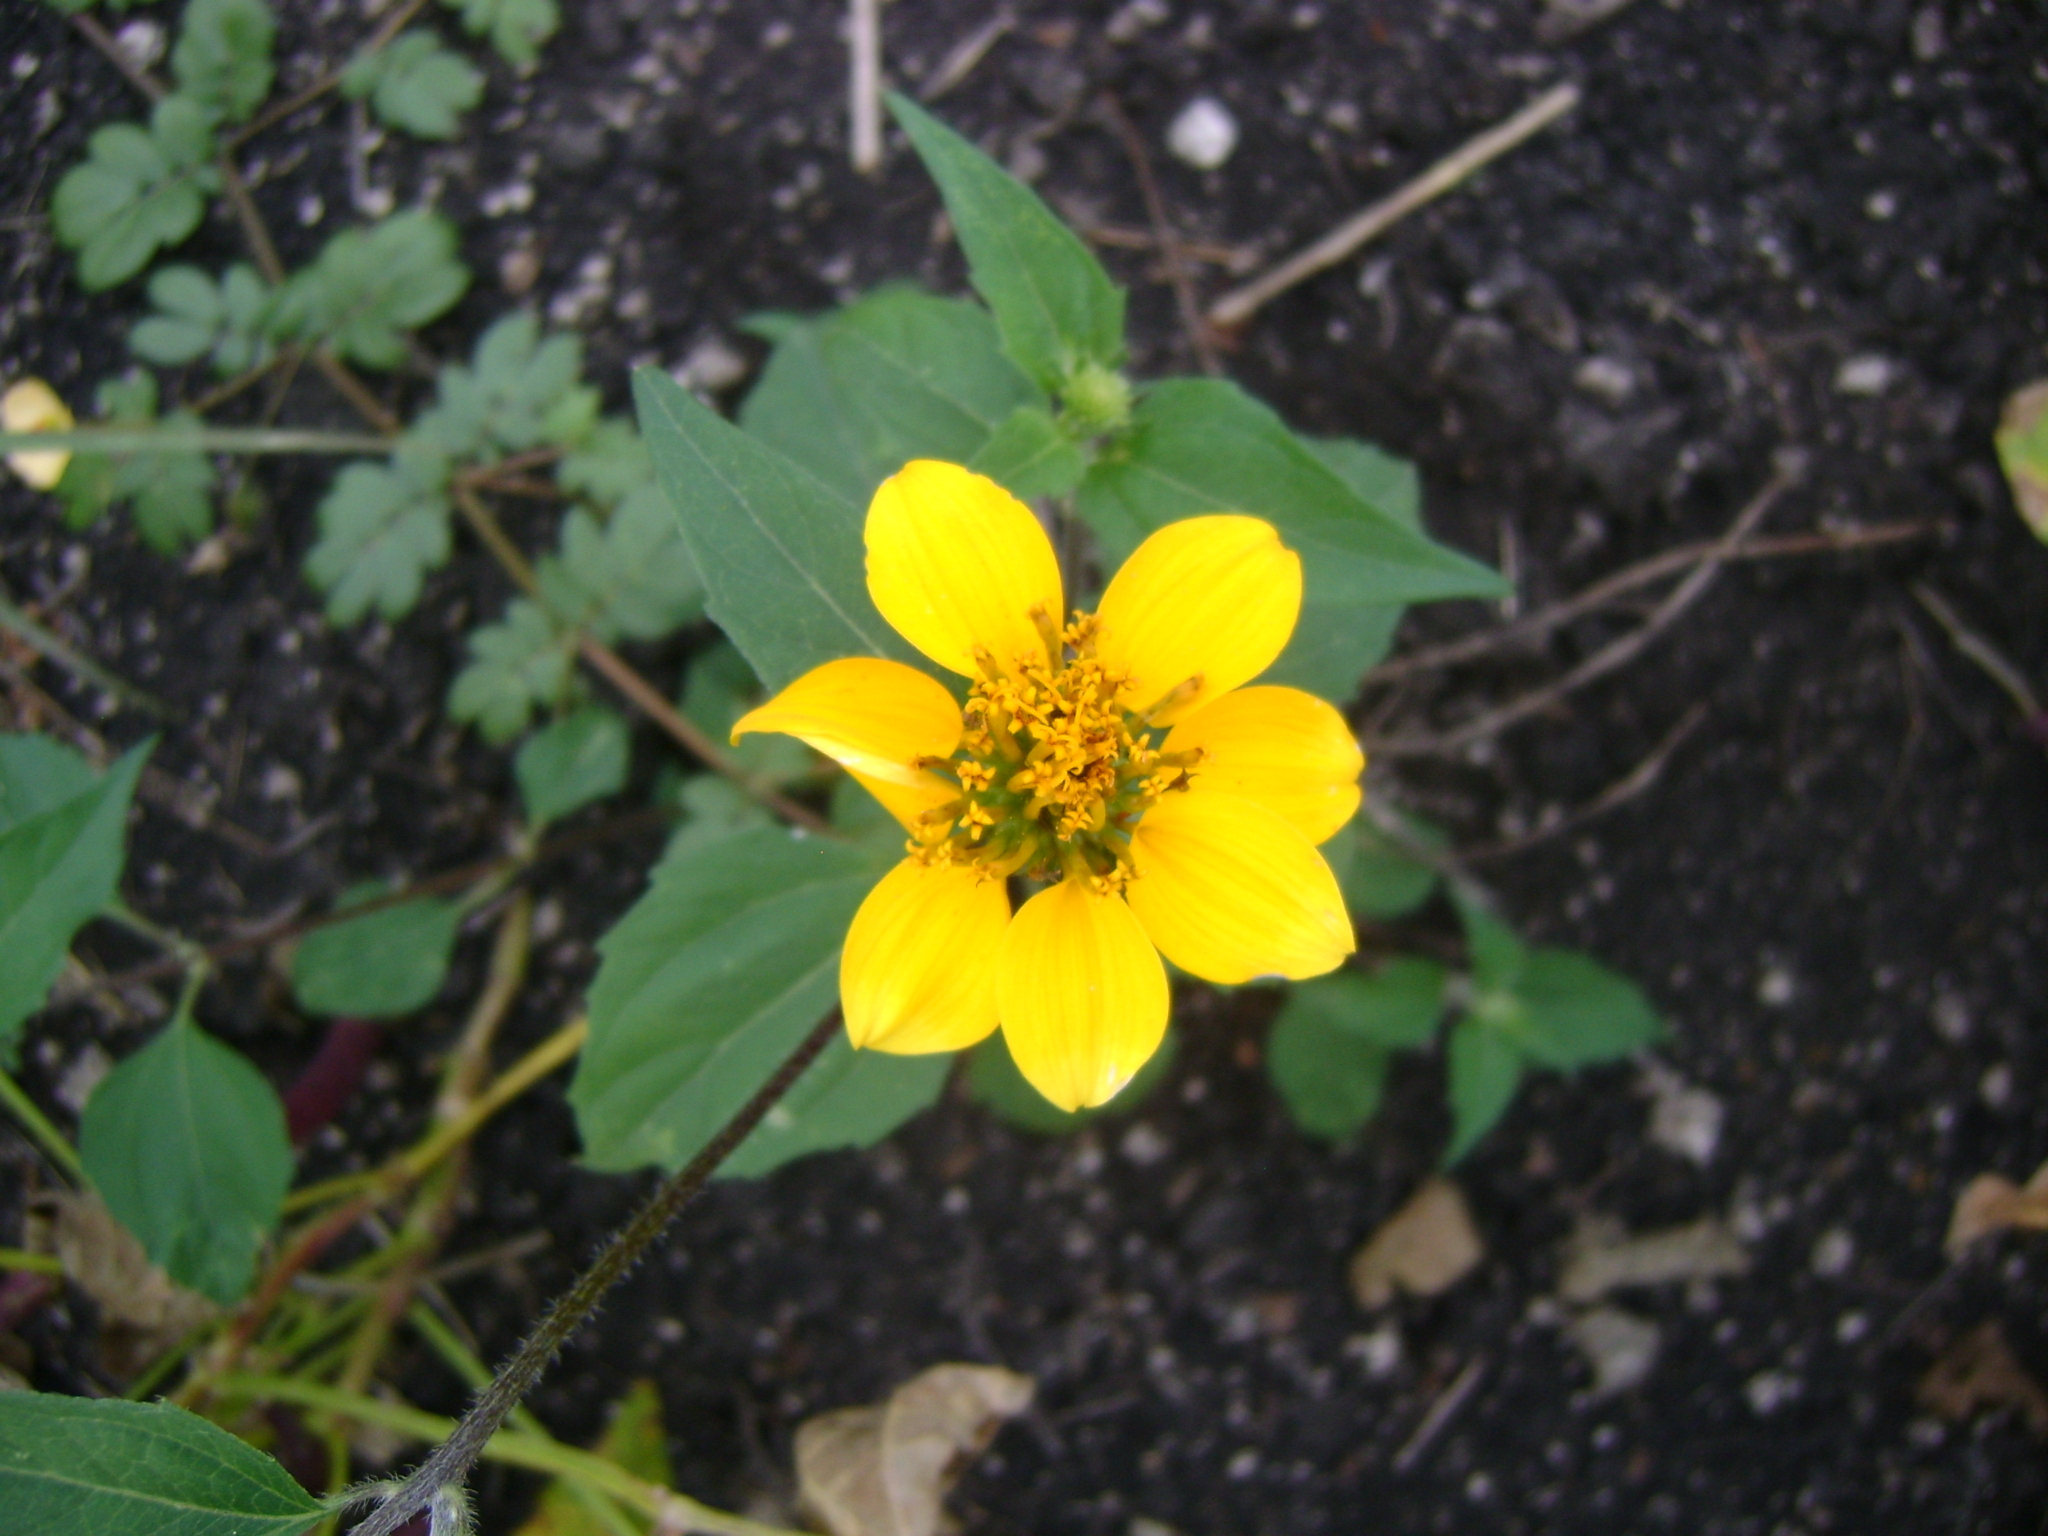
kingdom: Plantae
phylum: Tracheophyta
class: Magnoliopsida
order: Asterales
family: Asteraceae
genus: Sclerocarpus
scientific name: Sclerocarpus uniserialis
